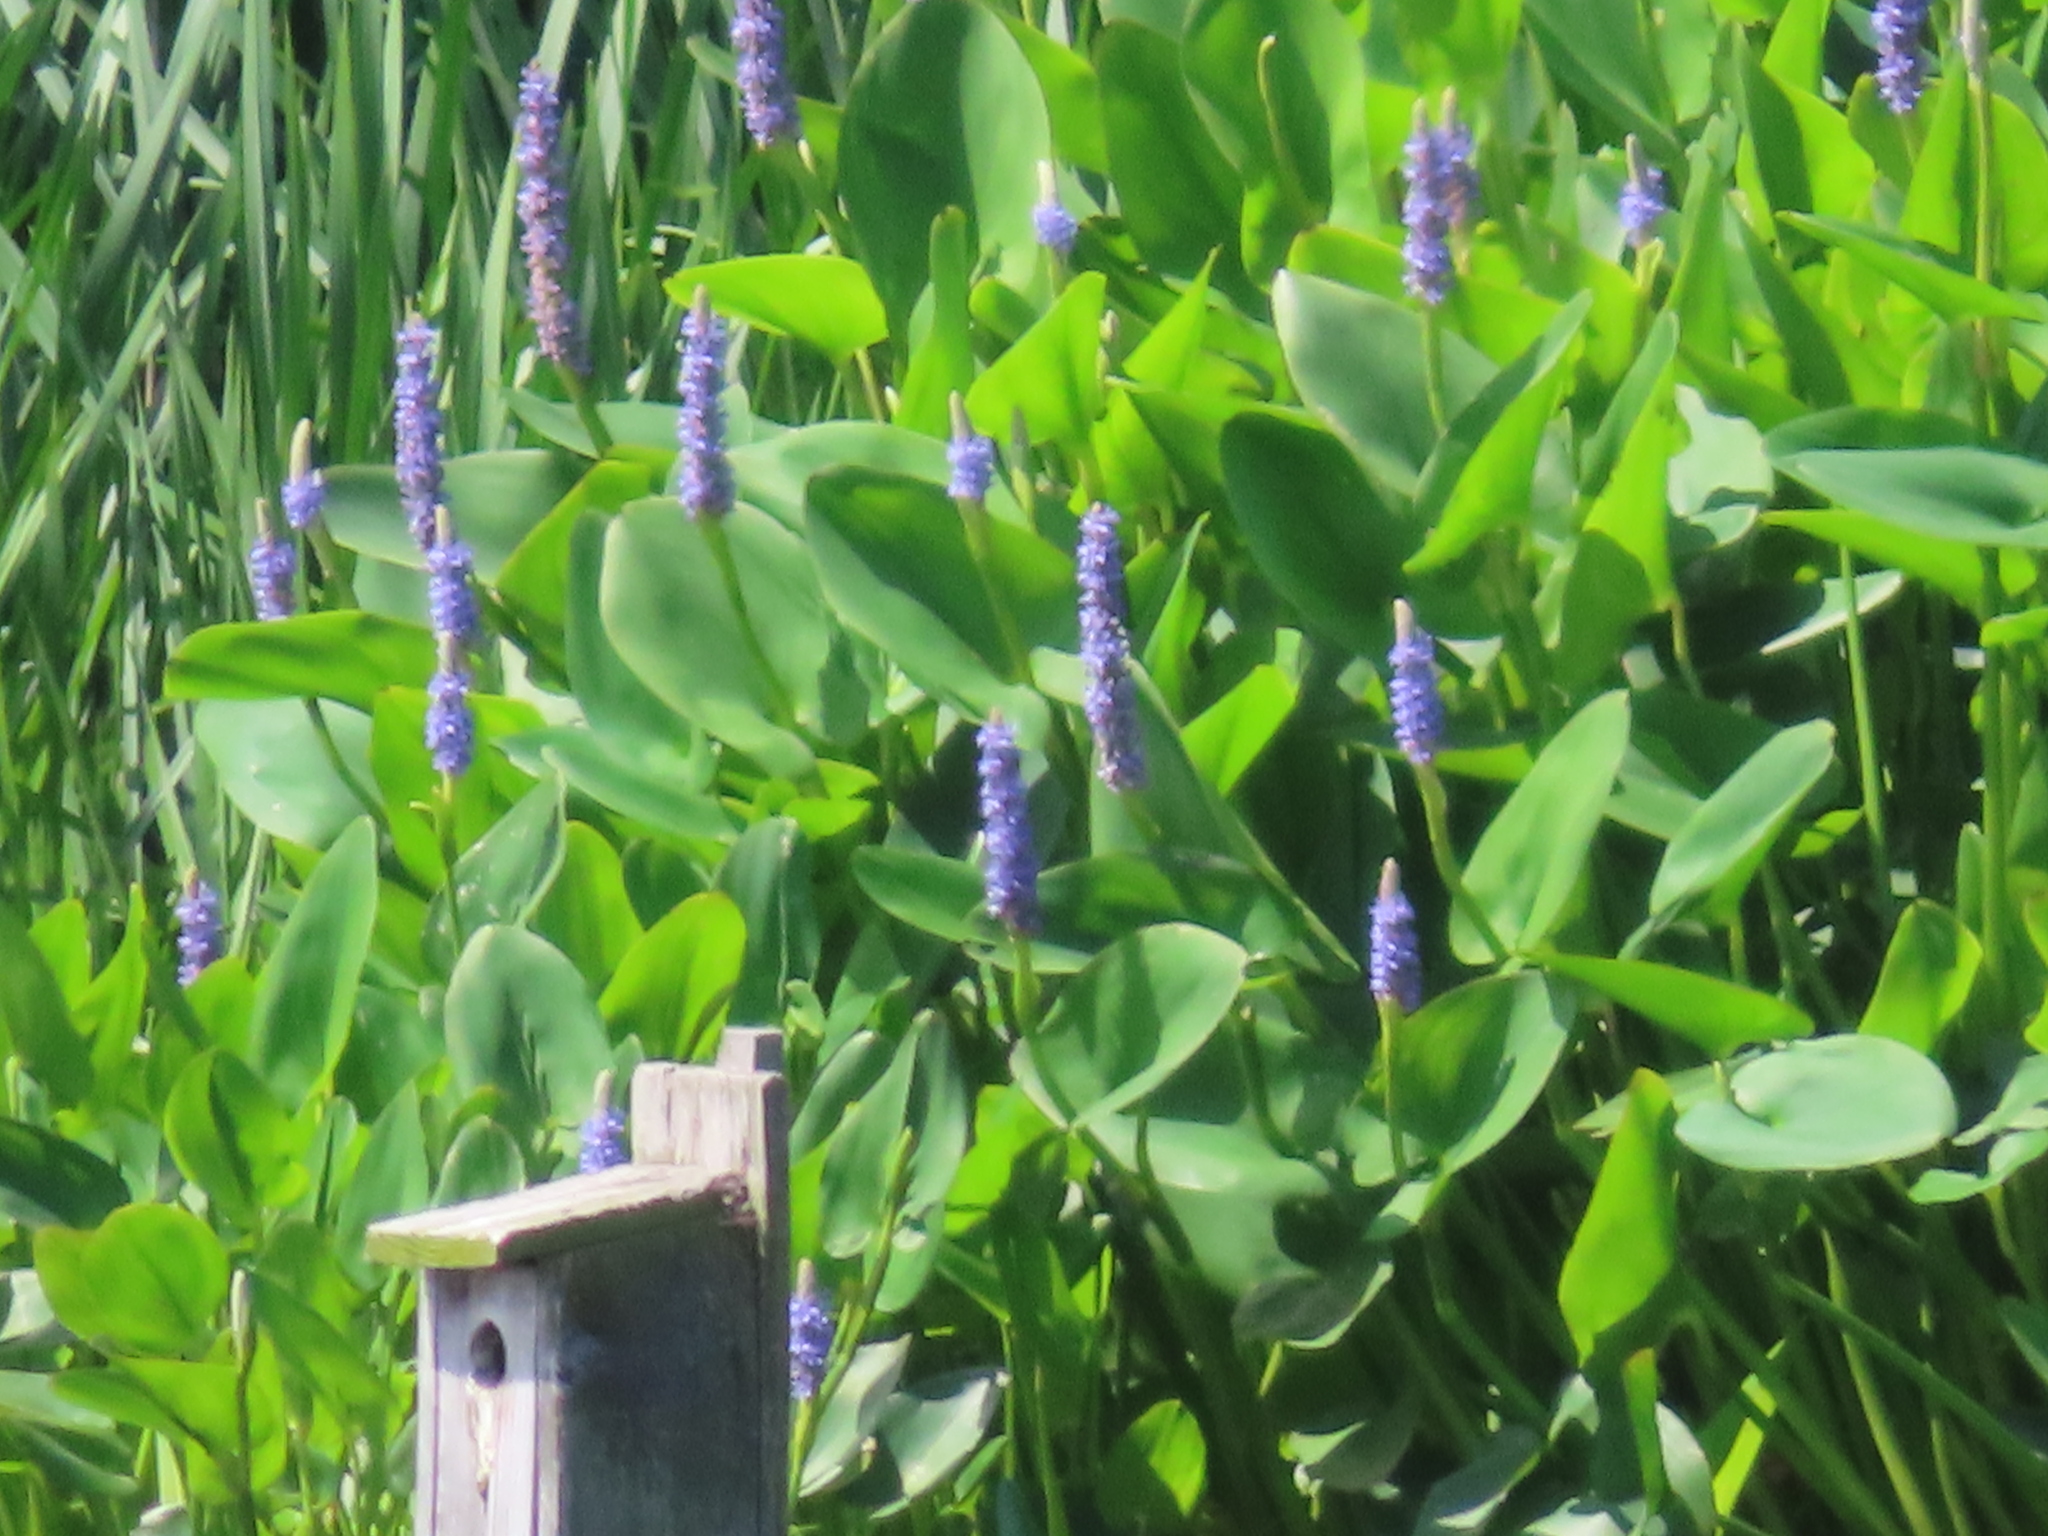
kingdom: Plantae
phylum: Tracheophyta
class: Liliopsida
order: Commelinales
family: Pontederiaceae
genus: Pontederia
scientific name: Pontederia cordata
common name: Pickerelweed
